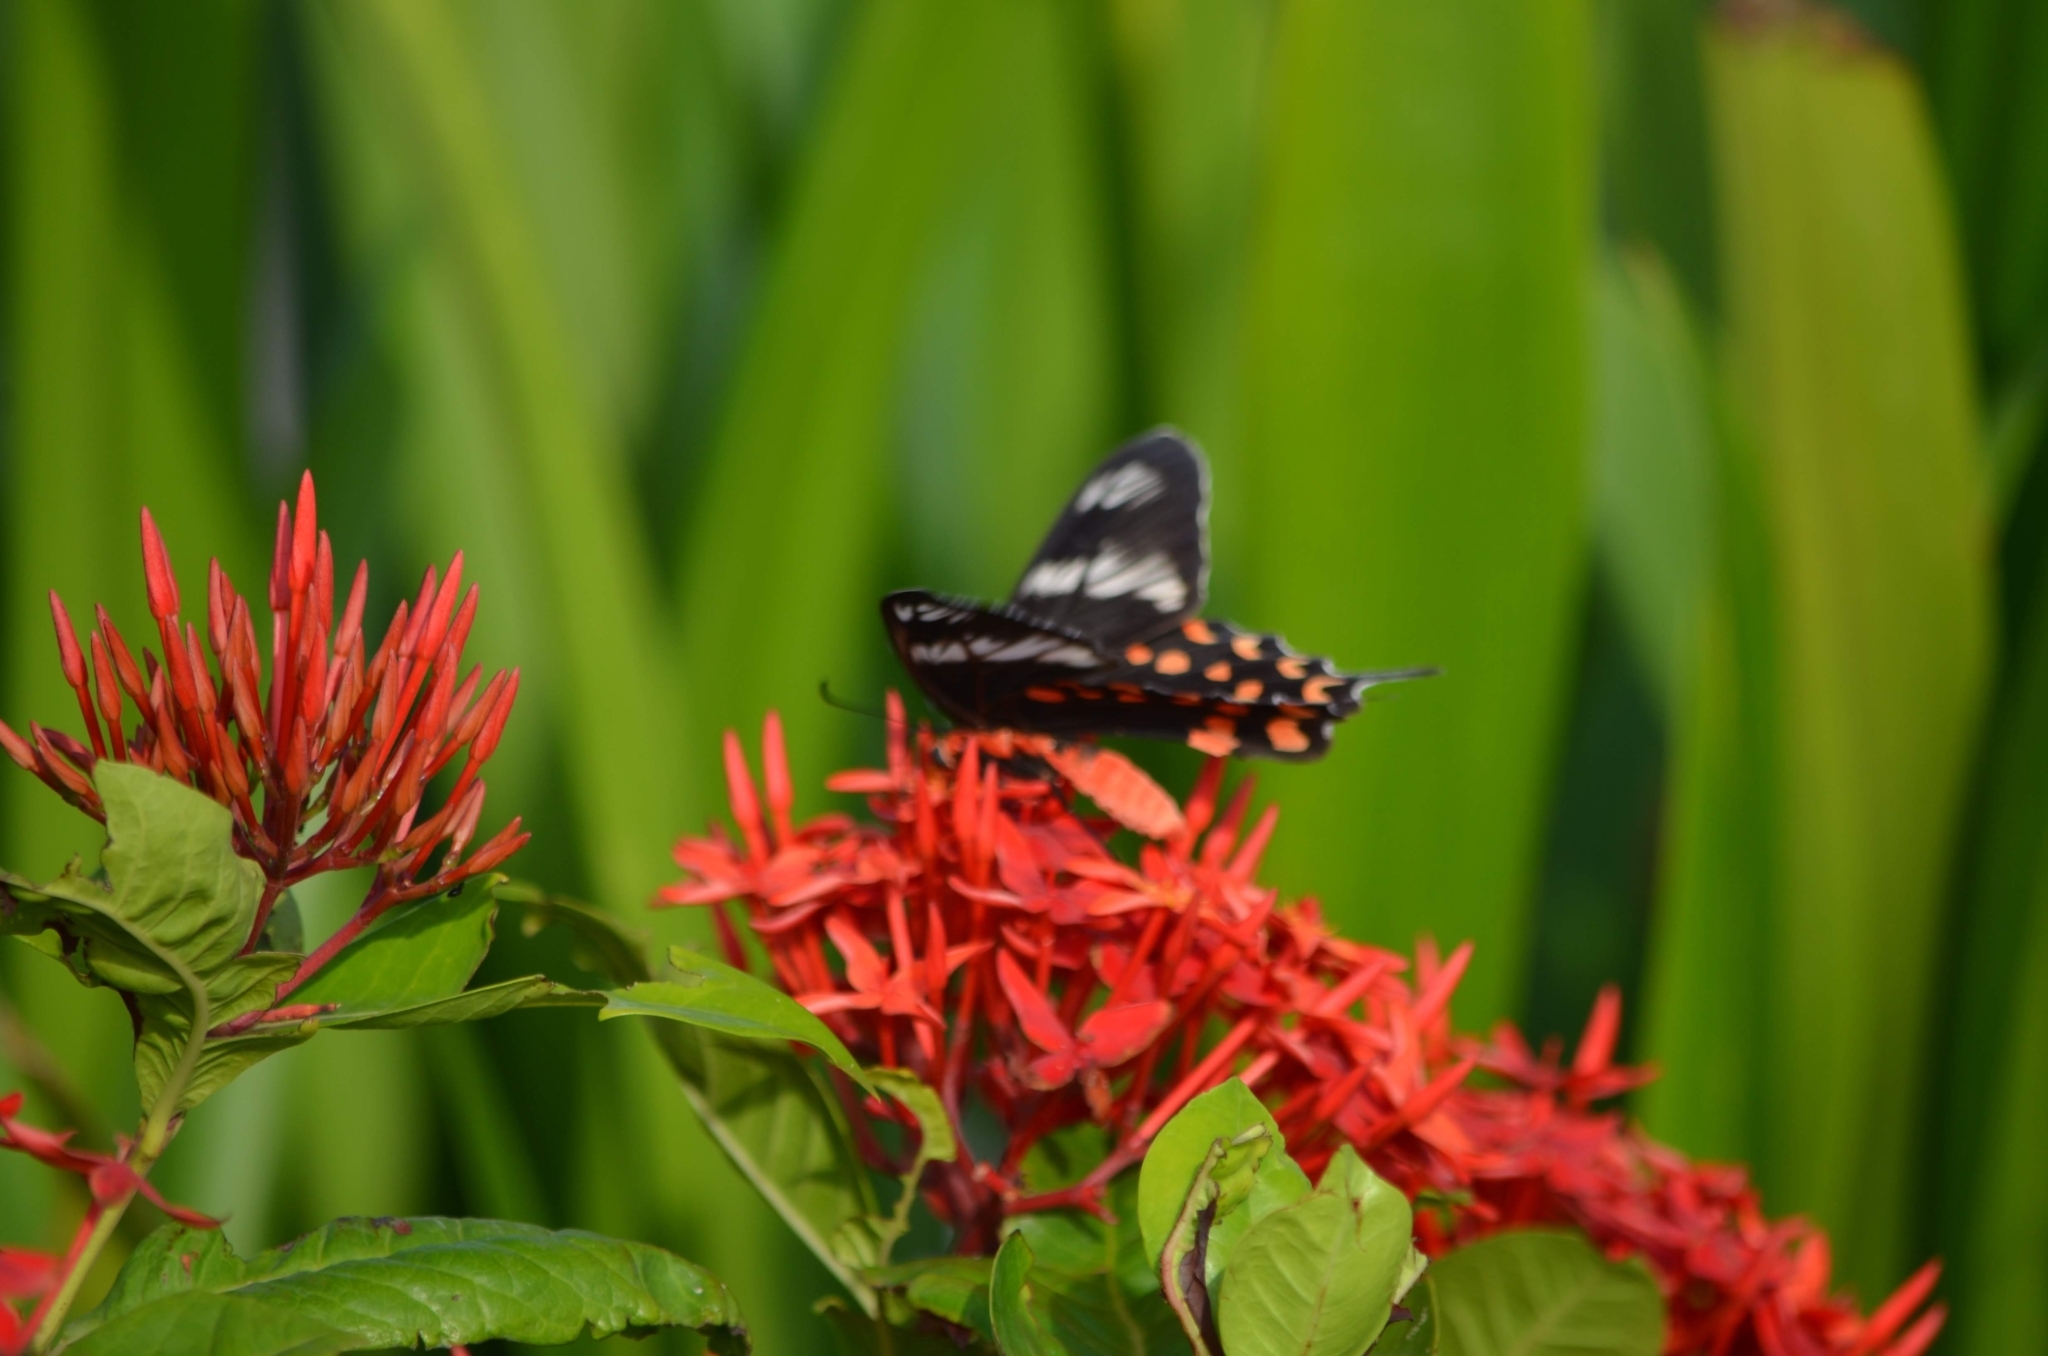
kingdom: Animalia
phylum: Arthropoda
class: Insecta
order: Lepidoptera
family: Papilionidae
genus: Pachliopta
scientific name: Pachliopta hector
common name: Crimson rose
